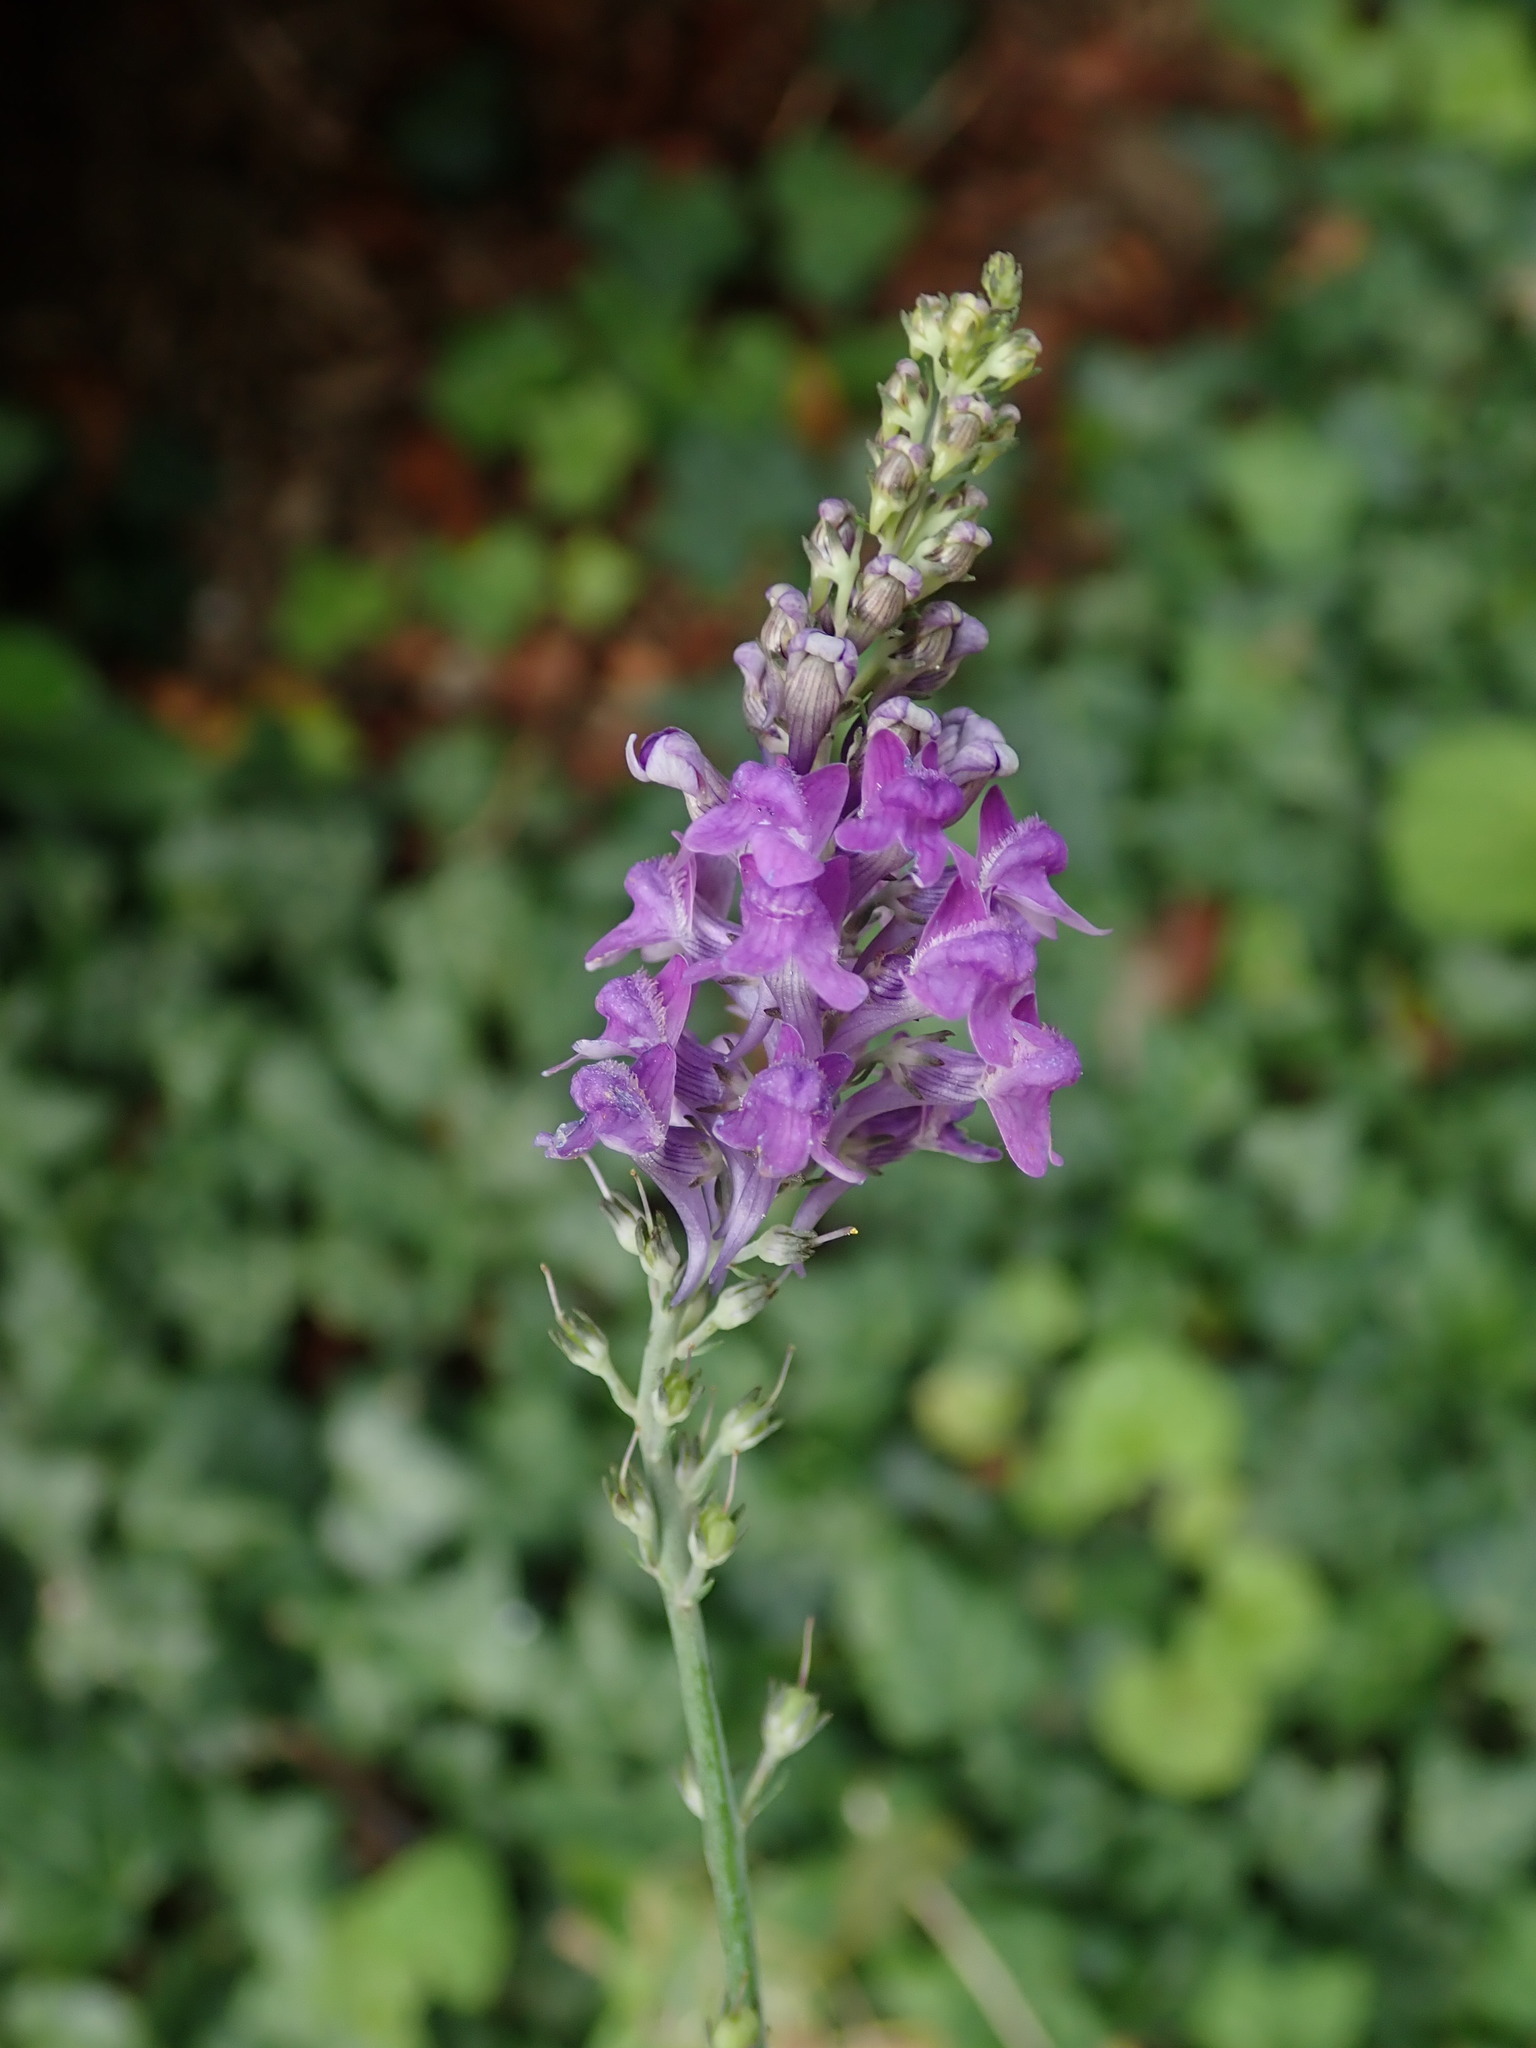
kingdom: Plantae
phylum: Tracheophyta
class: Magnoliopsida
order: Lamiales
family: Plantaginaceae
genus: Linaria
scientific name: Linaria purpurea
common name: Purple toadflax
